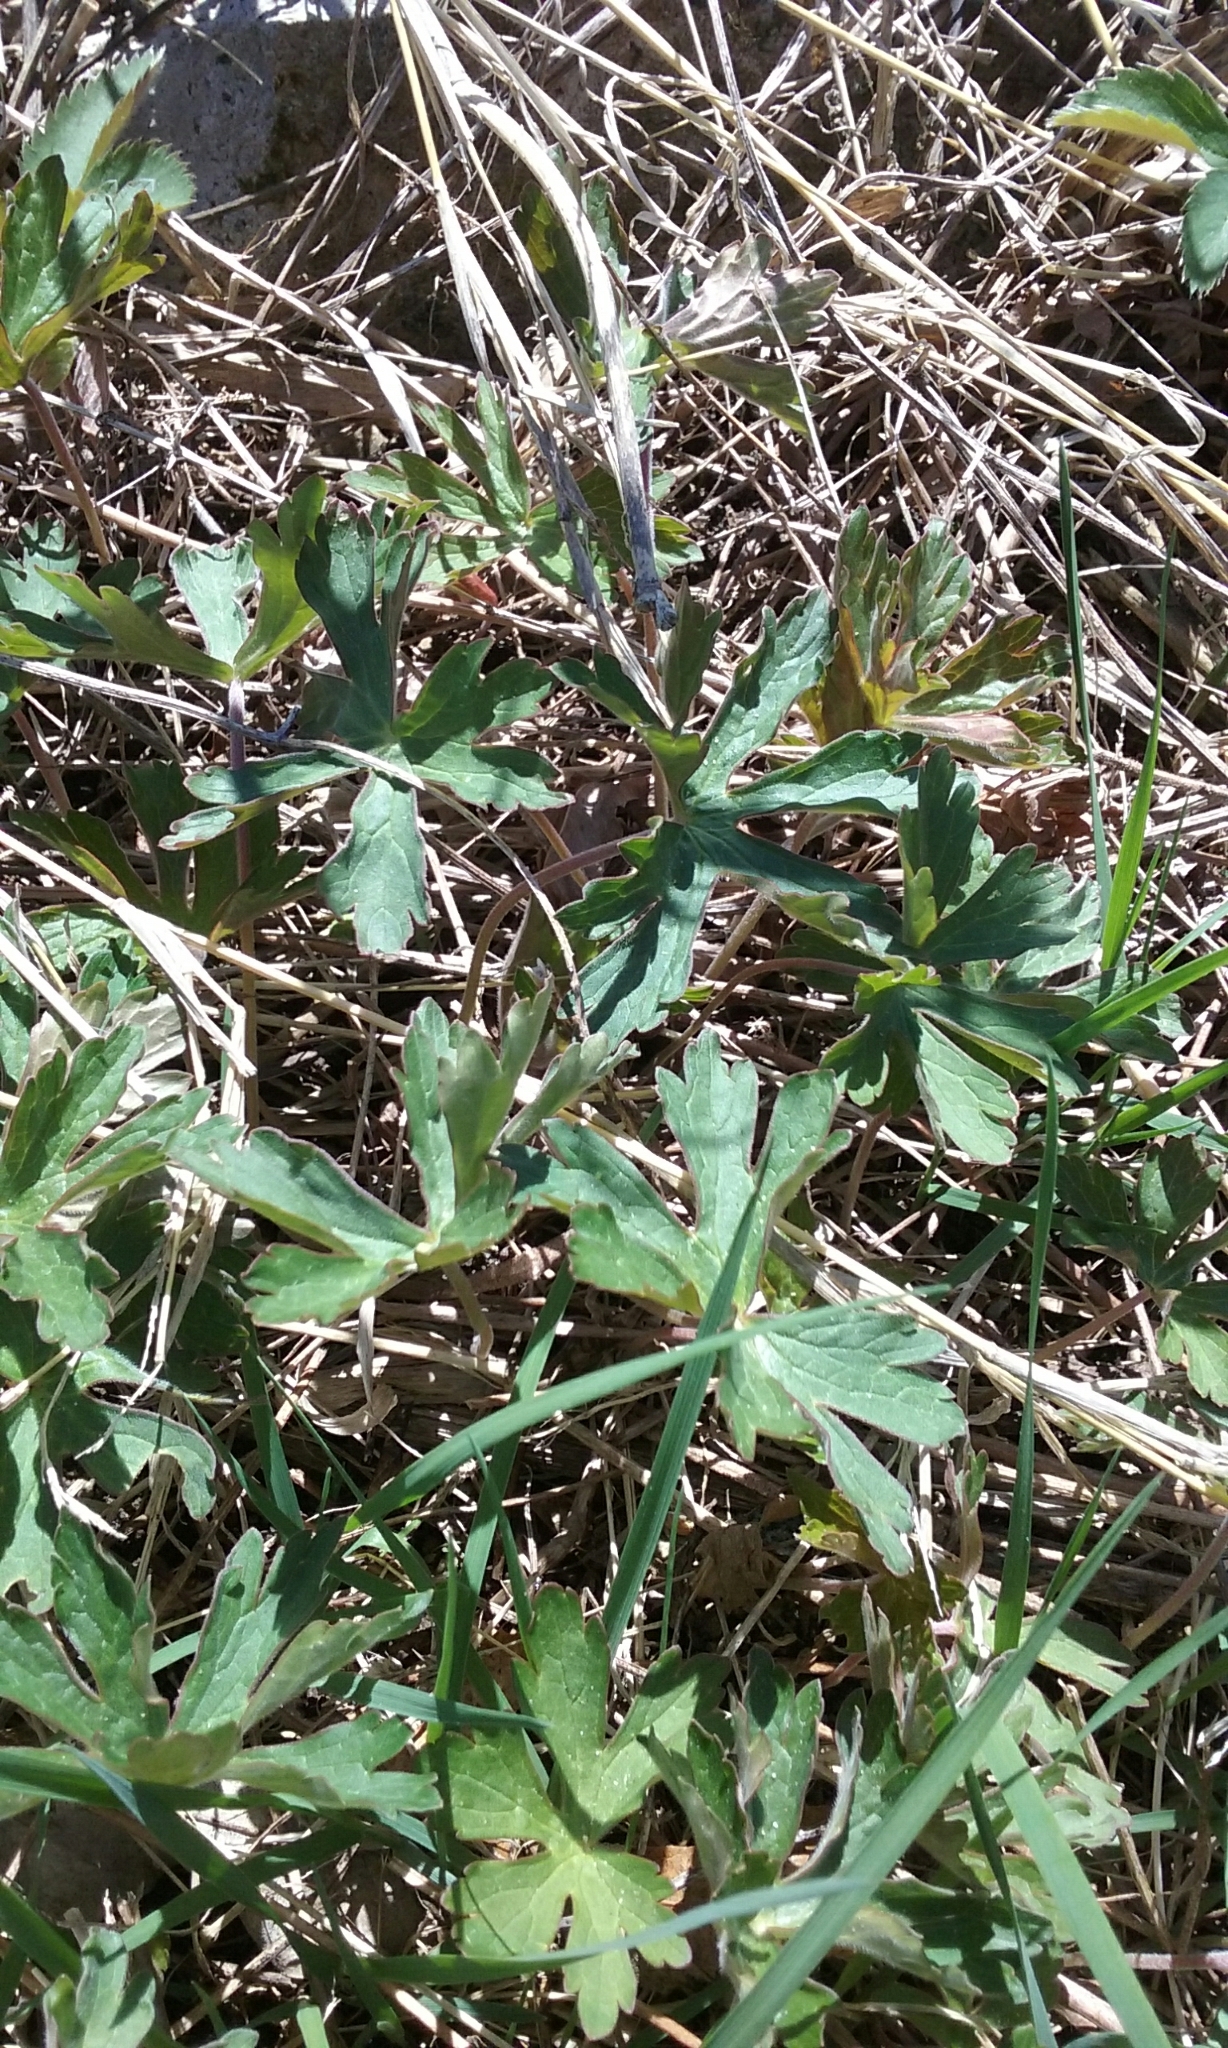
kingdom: Plantae
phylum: Tracheophyta
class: Magnoliopsida
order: Geraniales
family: Geraniaceae
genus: Geranium
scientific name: Geranium maculatum
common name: Spotted geranium
